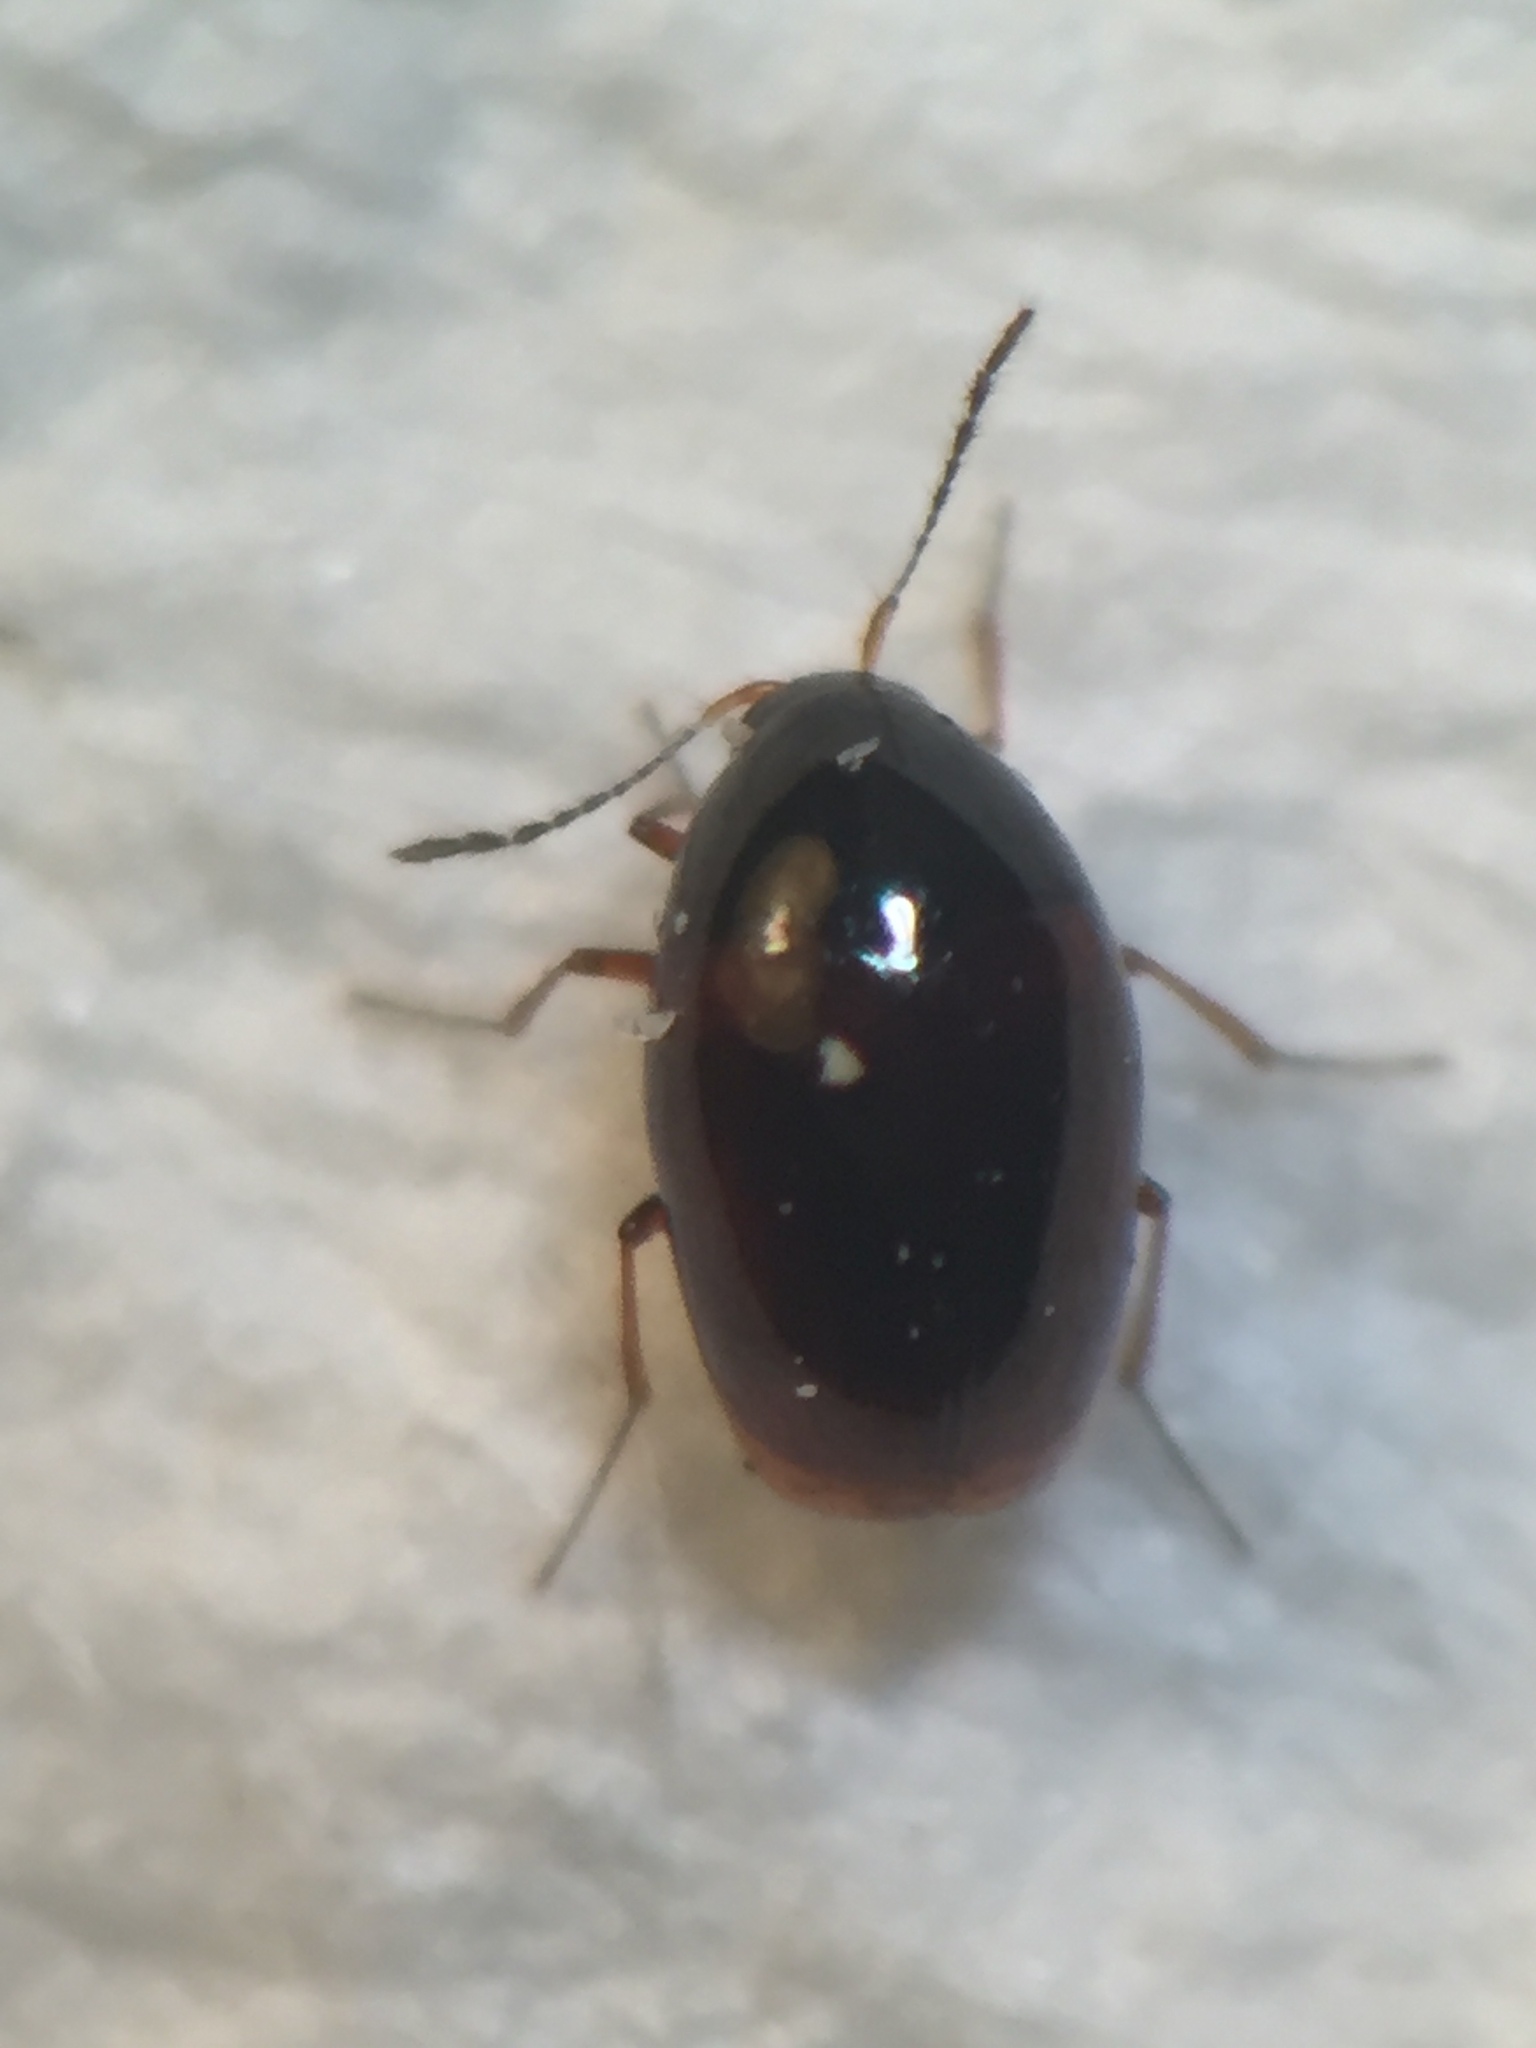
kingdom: Animalia
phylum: Arthropoda
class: Insecta
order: Coleoptera
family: Staphylinidae
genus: Baeocera
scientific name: Baeocera actuosa
